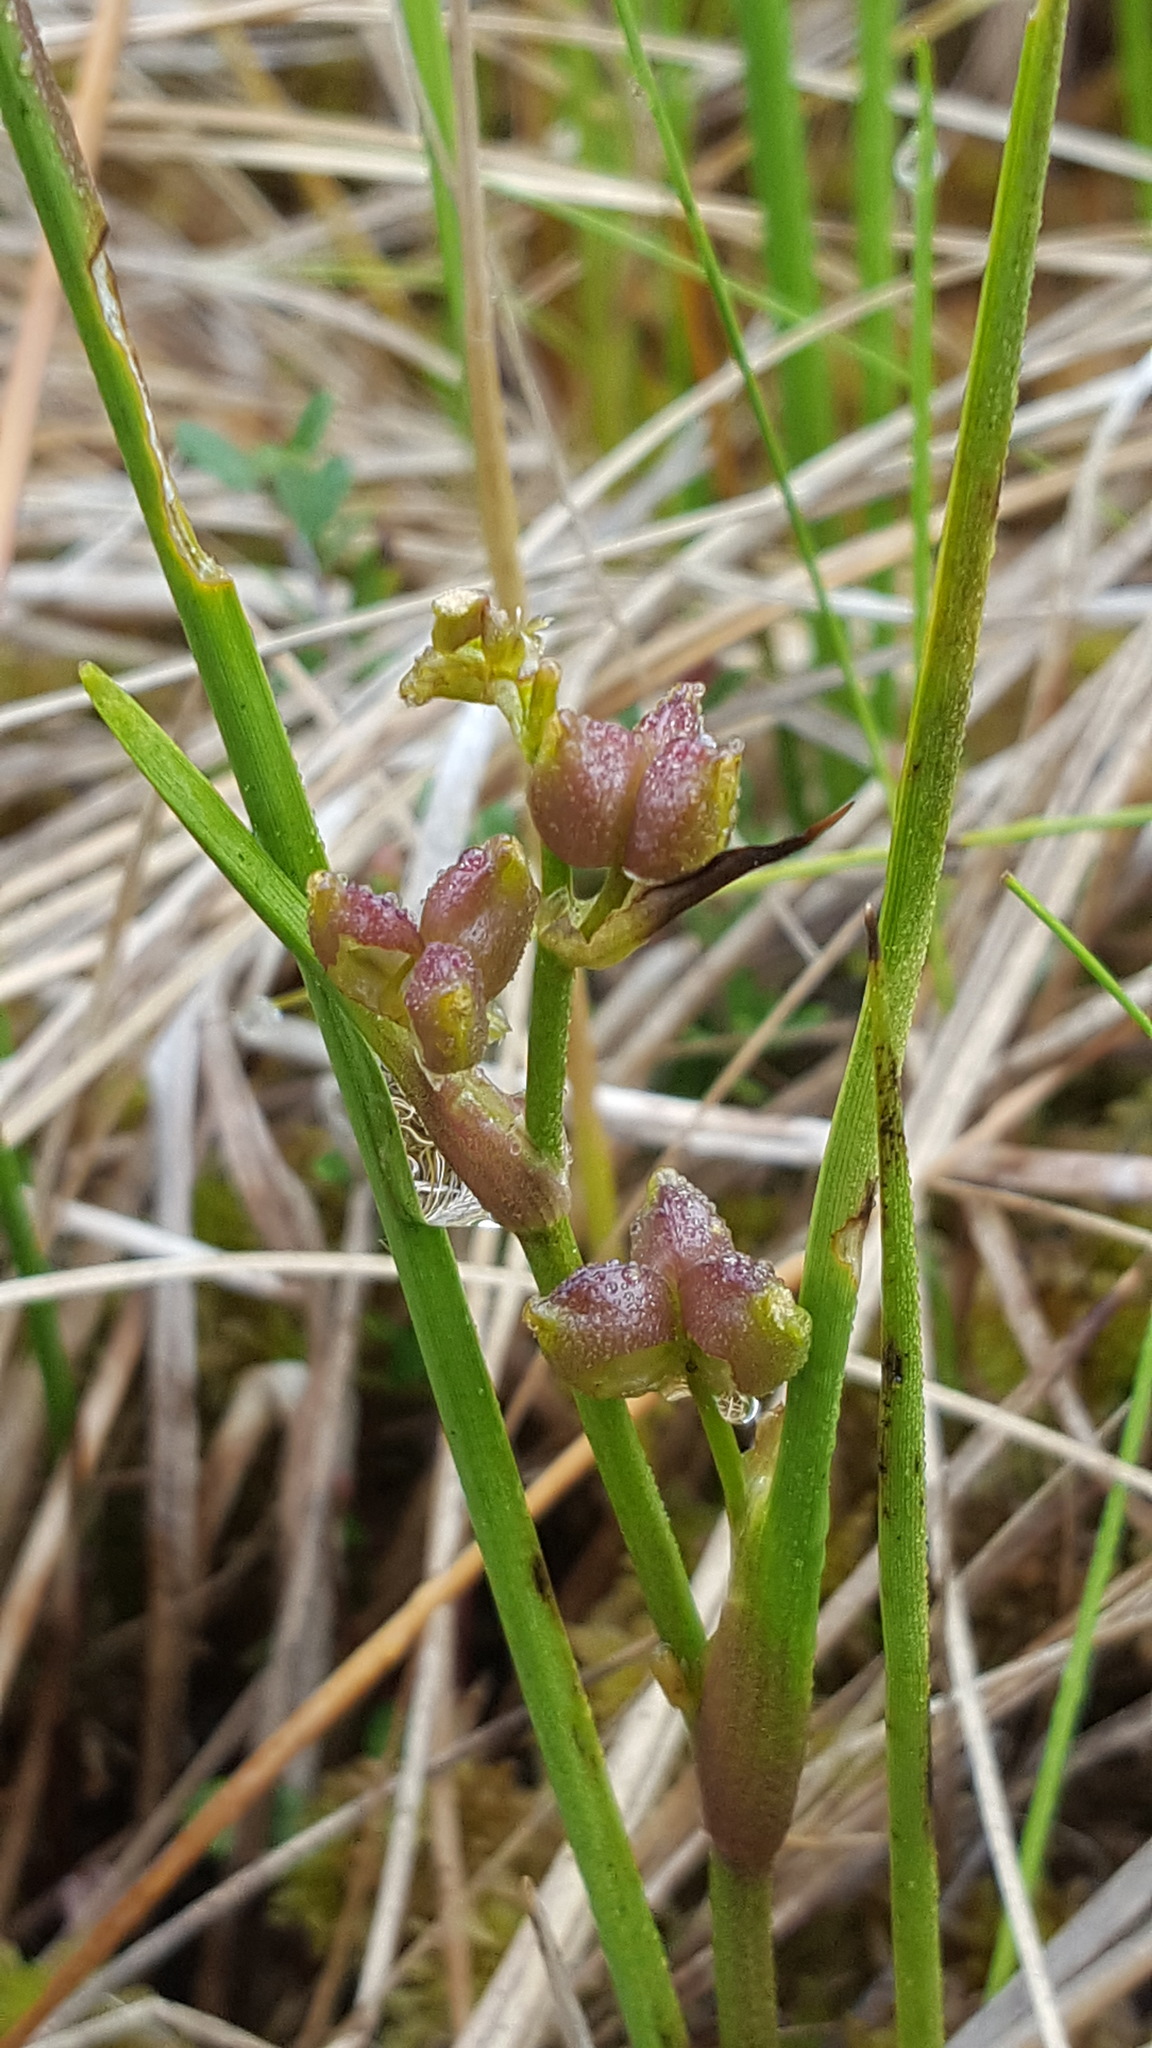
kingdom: Plantae
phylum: Tracheophyta
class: Liliopsida
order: Alismatales
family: Scheuchzeriaceae
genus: Scheuchzeria
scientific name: Scheuchzeria palustris
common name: Rannoch-rush
